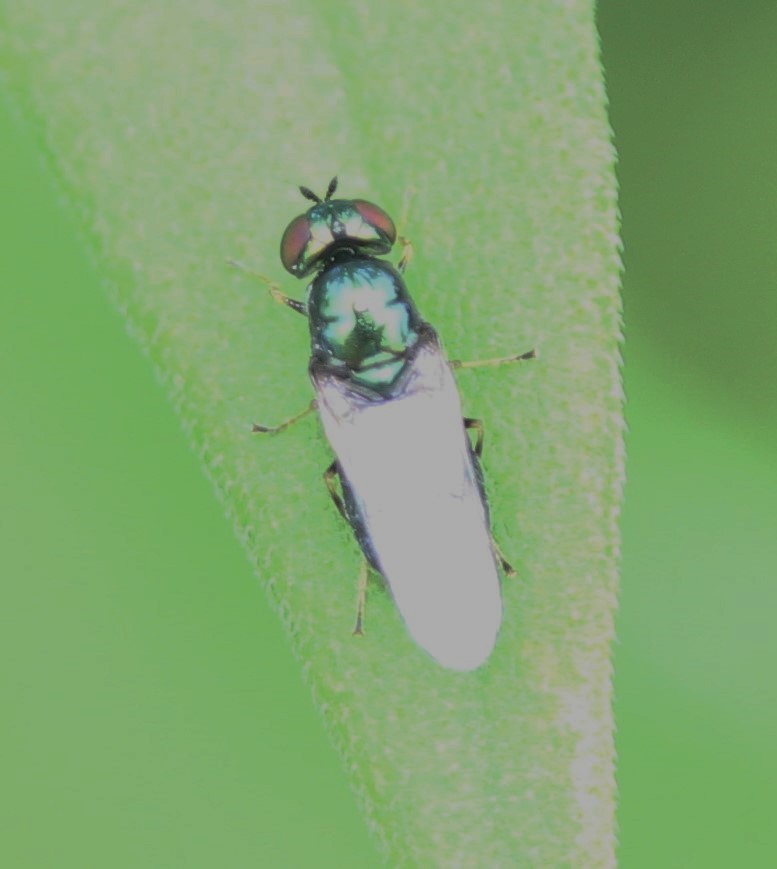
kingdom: Animalia
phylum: Arthropoda
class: Insecta
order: Diptera
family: Stratiomyidae
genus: Microchrysa
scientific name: Microchrysa polita
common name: Black-horned gem
